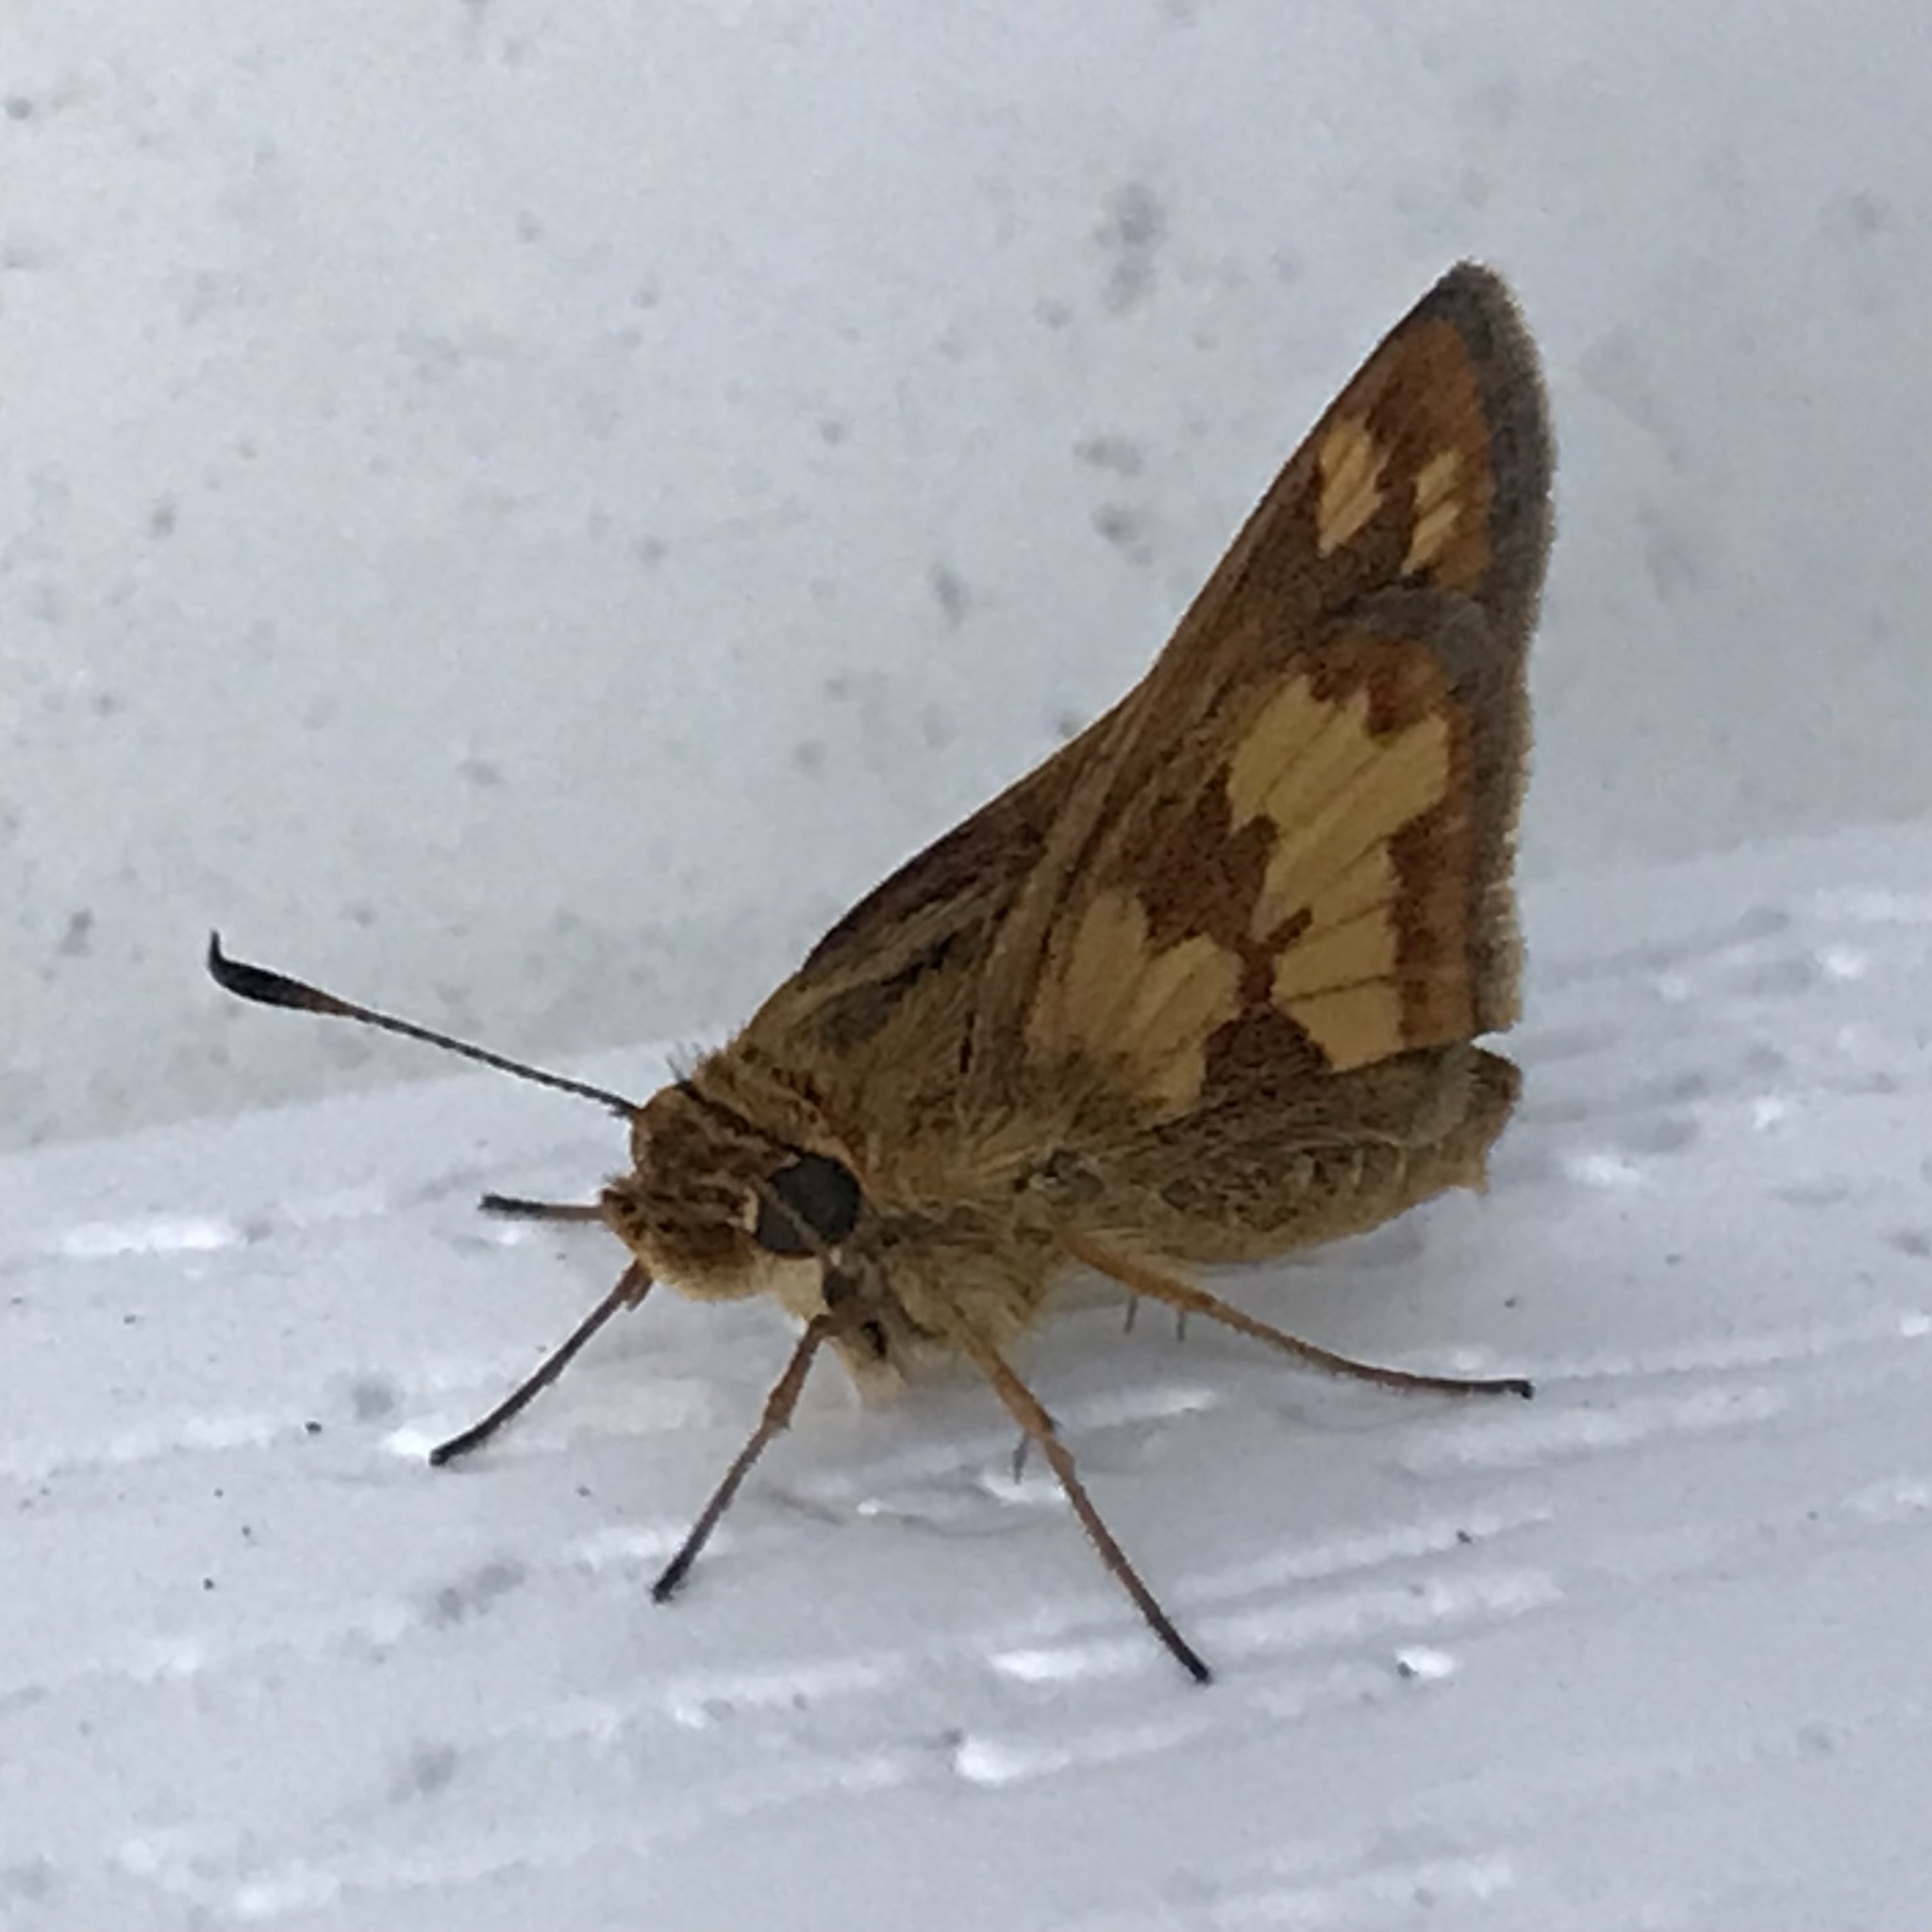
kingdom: Animalia
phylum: Arthropoda
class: Insecta
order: Lepidoptera
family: Hesperiidae
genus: Polites
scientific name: Polites coras
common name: Peck's skipper
